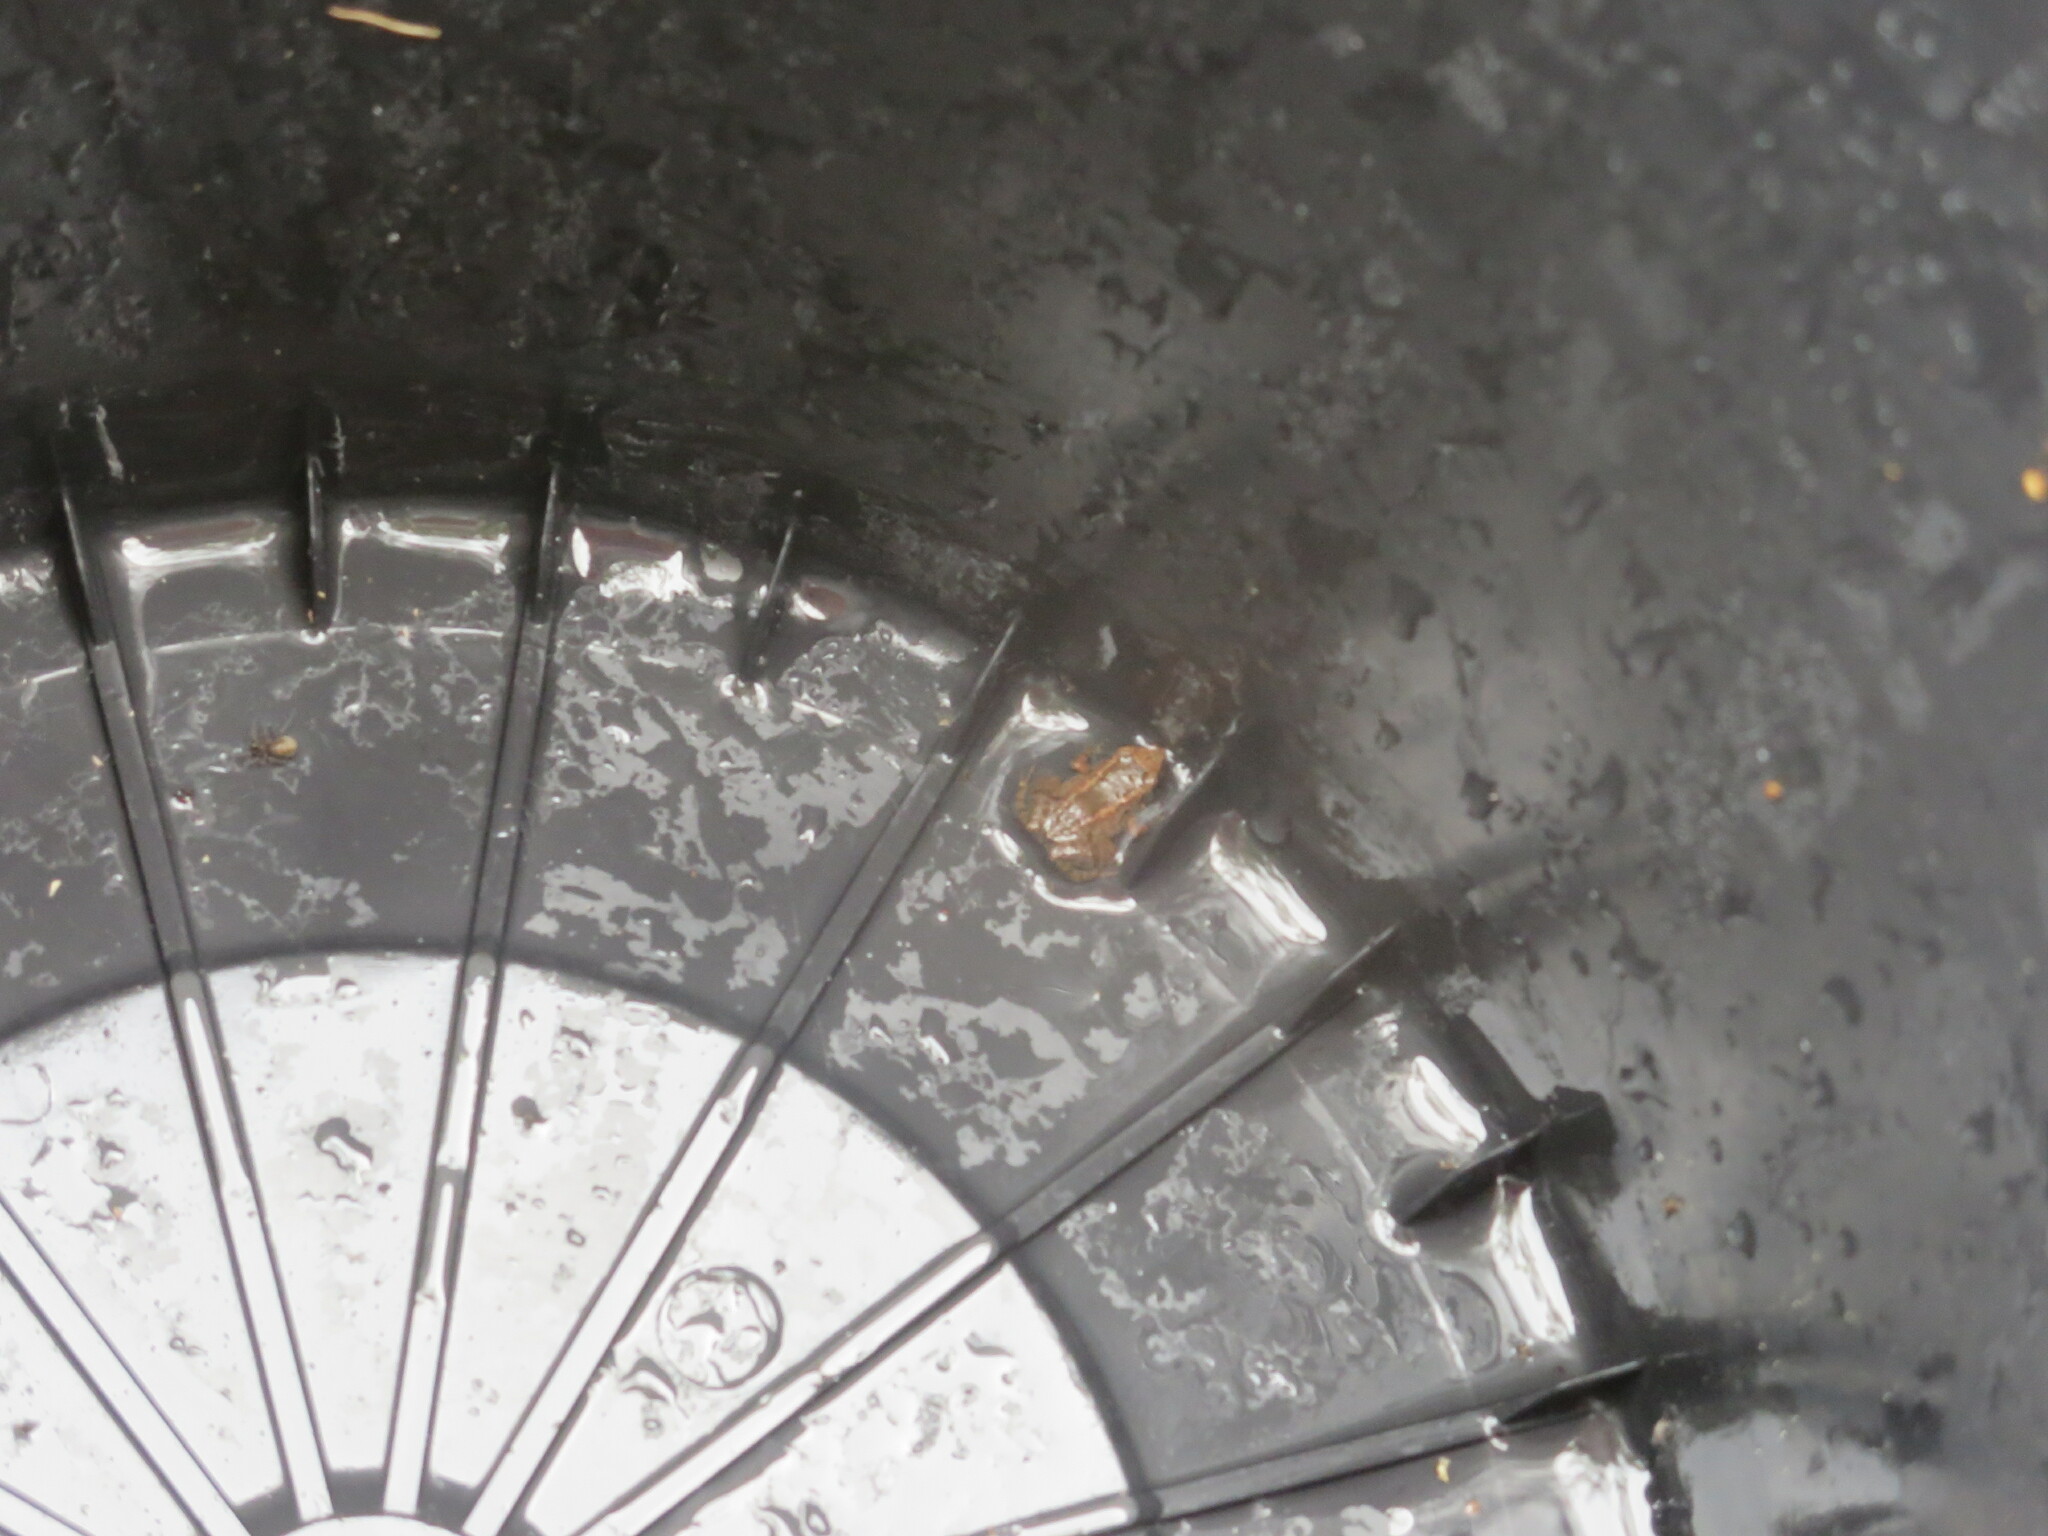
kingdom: Animalia
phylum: Chordata
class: Amphibia
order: Anura
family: Eleutherodactylidae
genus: Eleutherodactylus
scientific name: Eleutherodactylus planirostris
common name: Greenhouse frog
